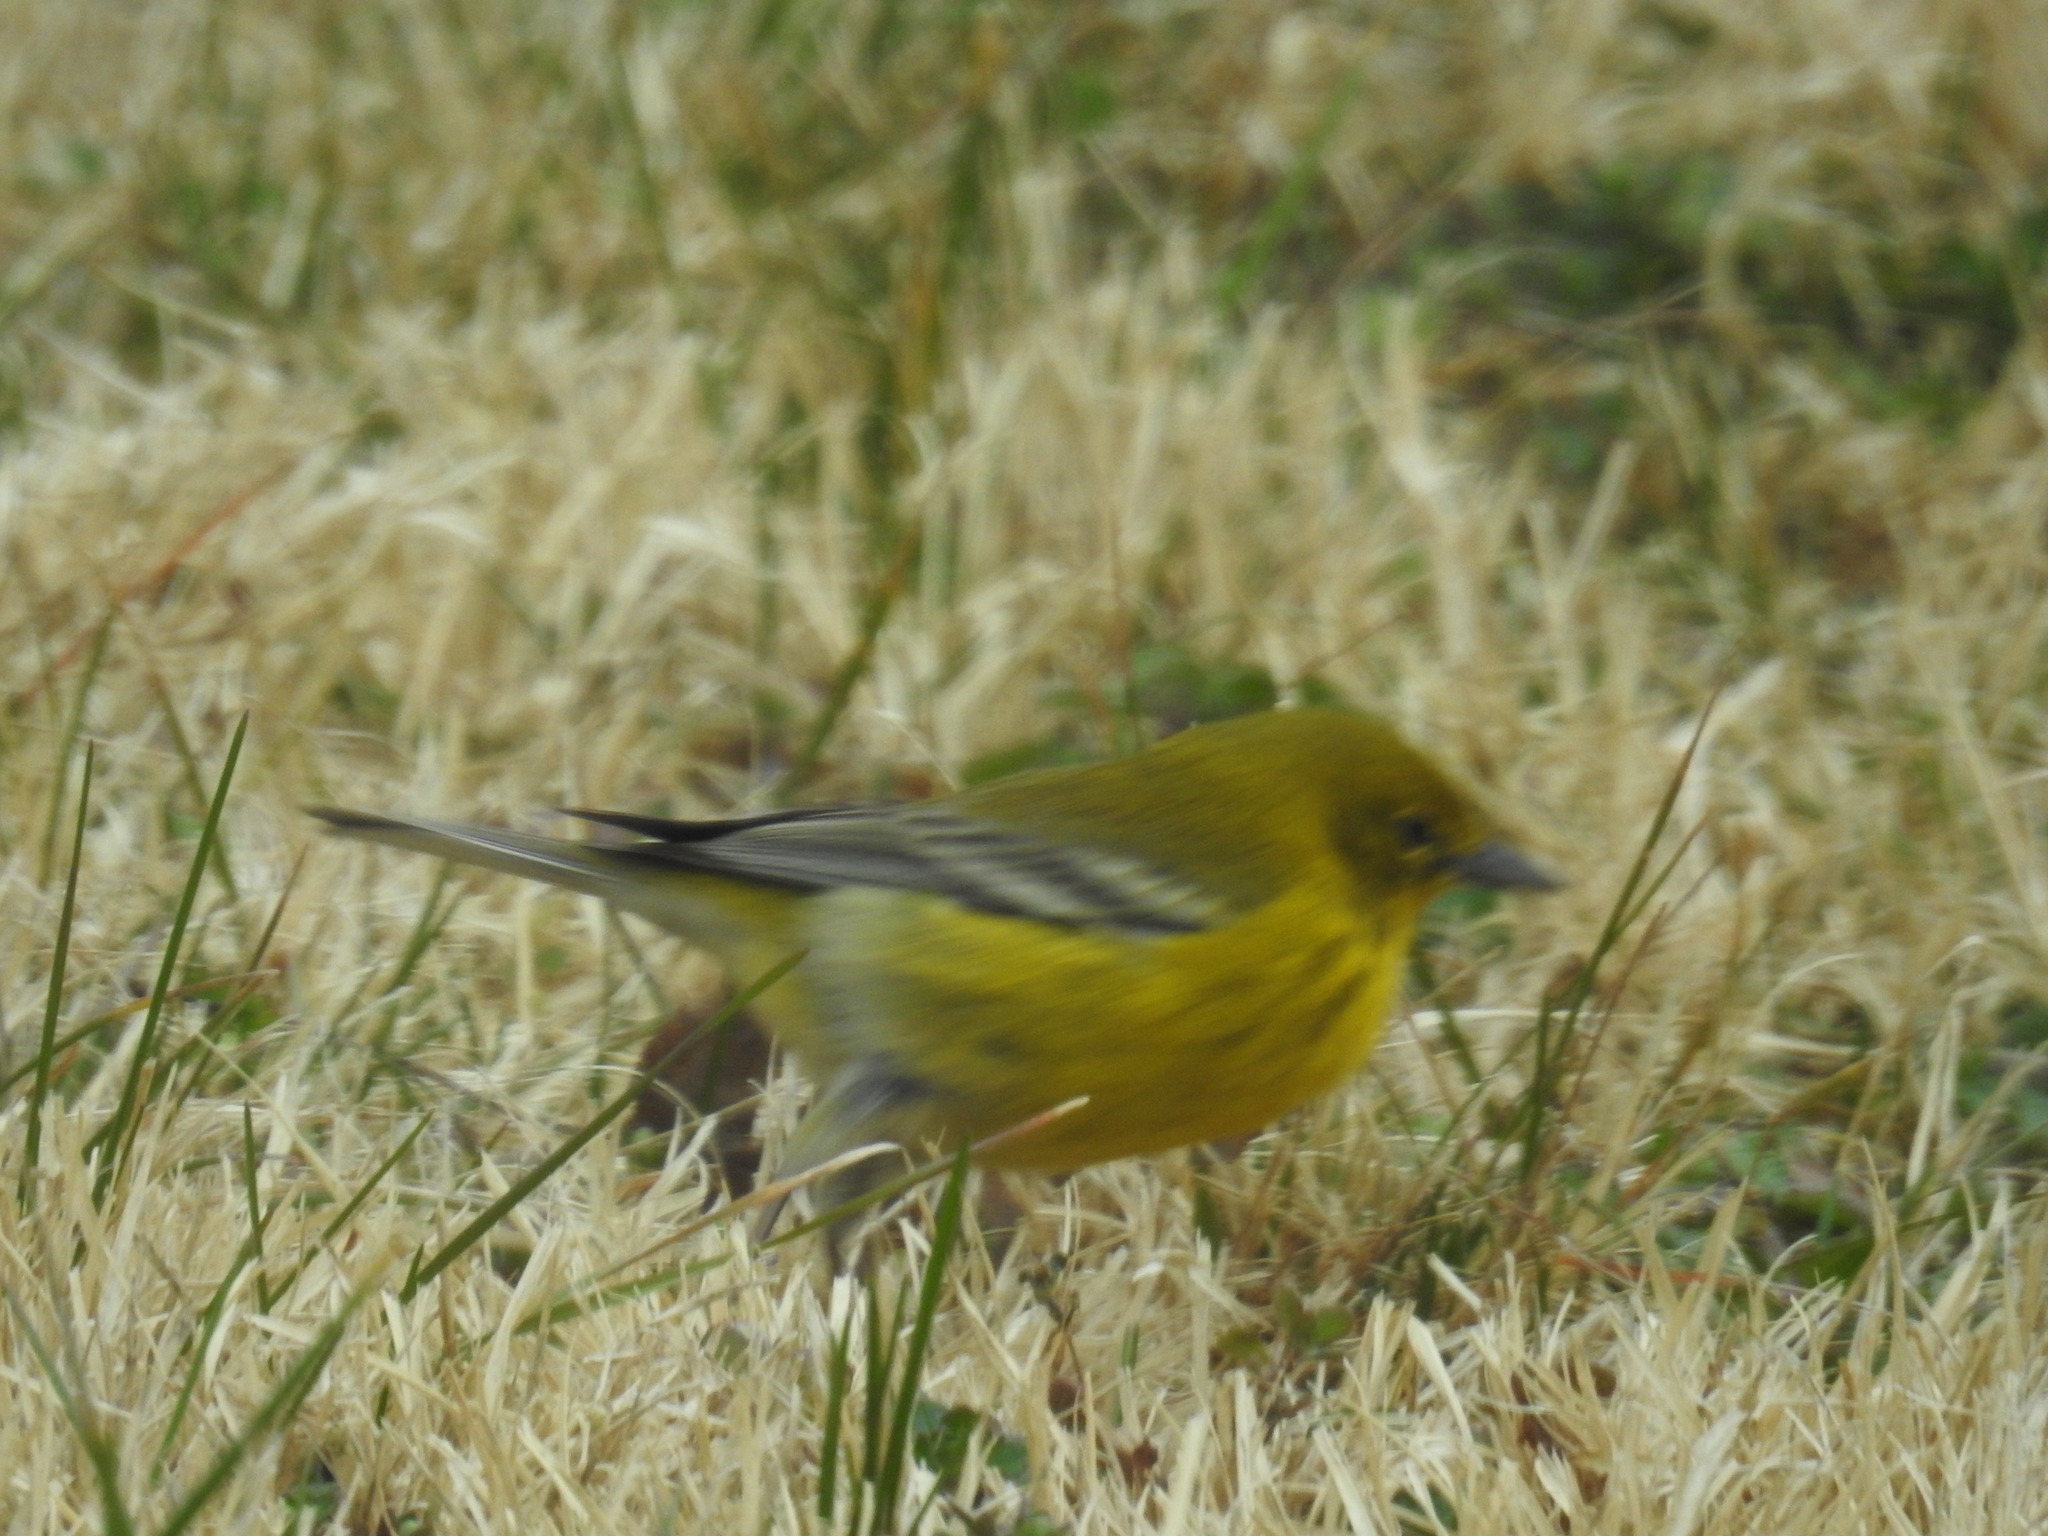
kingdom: Animalia
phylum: Chordata
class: Aves
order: Passeriformes
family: Parulidae
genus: Setophaga
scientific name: Setophaga pinus
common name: Pine warbler
